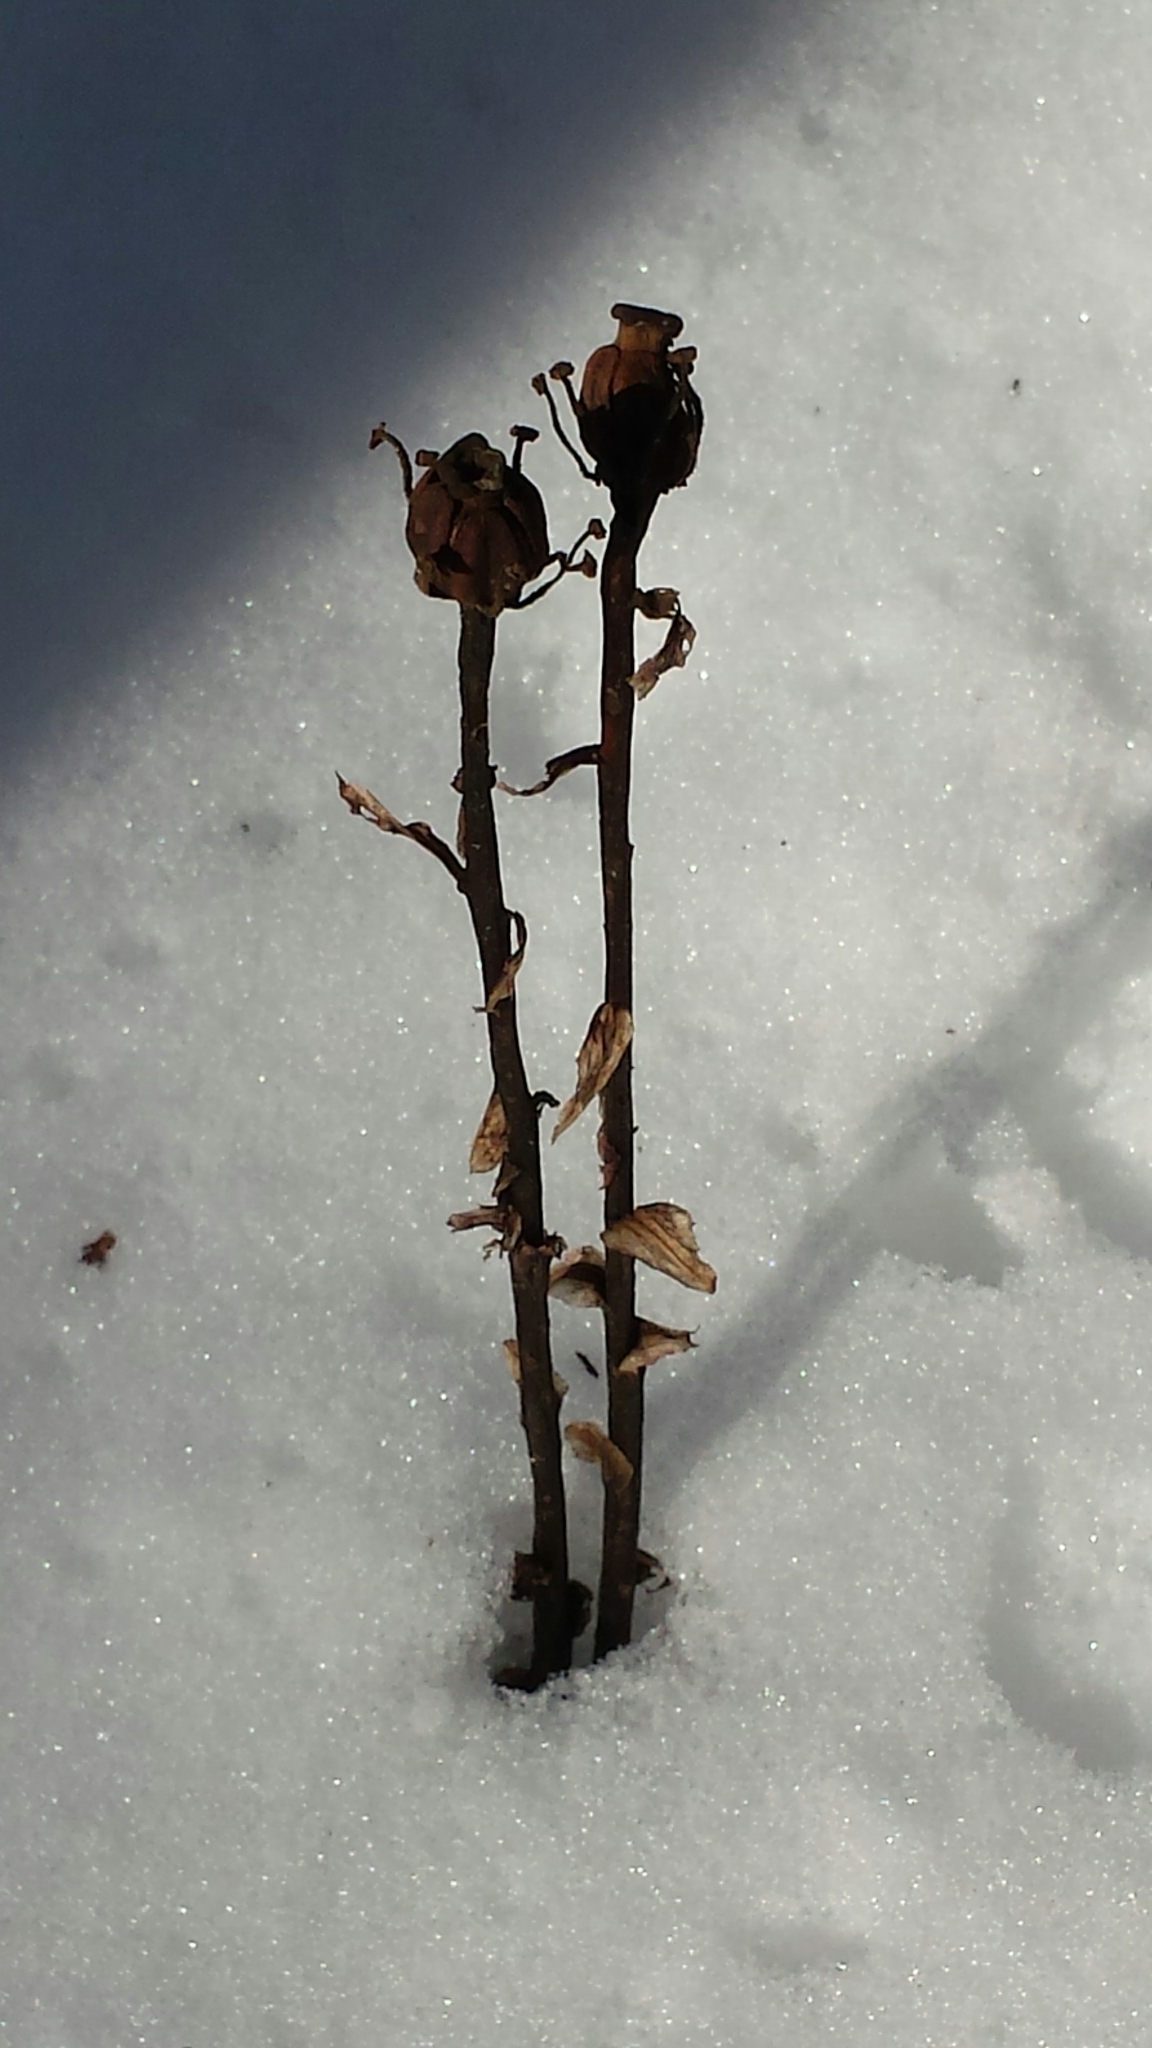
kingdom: Plantae
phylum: Tracheophyta
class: Magnoliopsida
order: Ericales
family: Ericaceae
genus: Monotropa
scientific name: Monotropa uniflora
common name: Convulsion root
